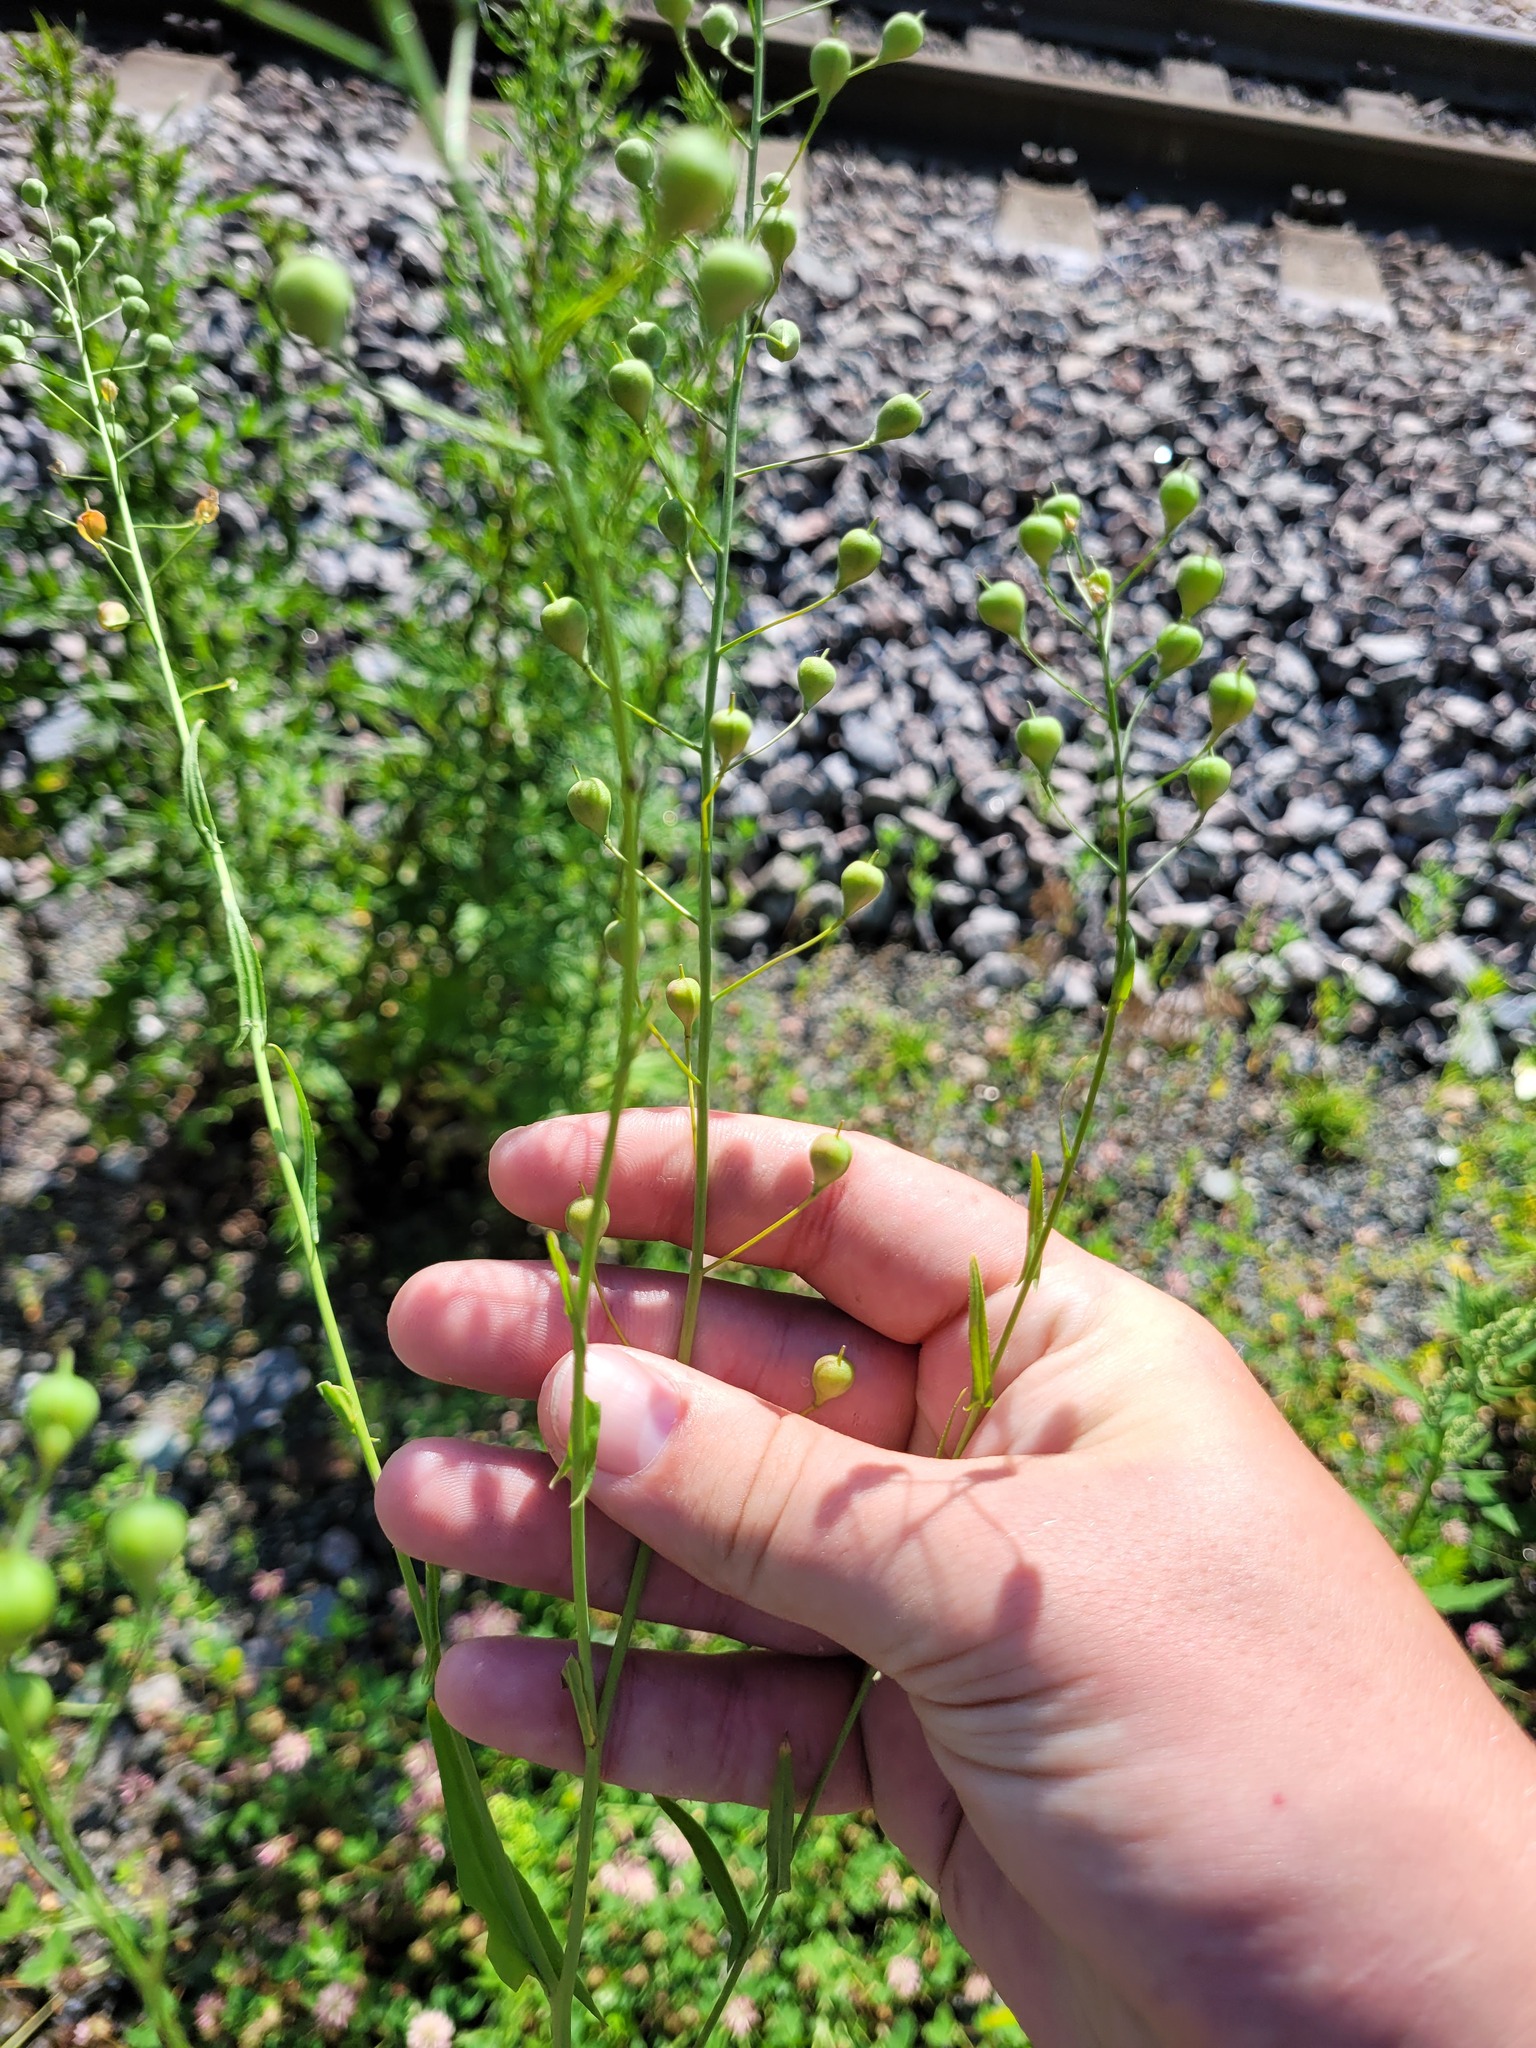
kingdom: Plantae
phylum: Tracheophyta
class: Magnoliopsida
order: Brassicales
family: Brassicaceae
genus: Camelina
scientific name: Camelina sativa
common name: Gold-of-pleasure
